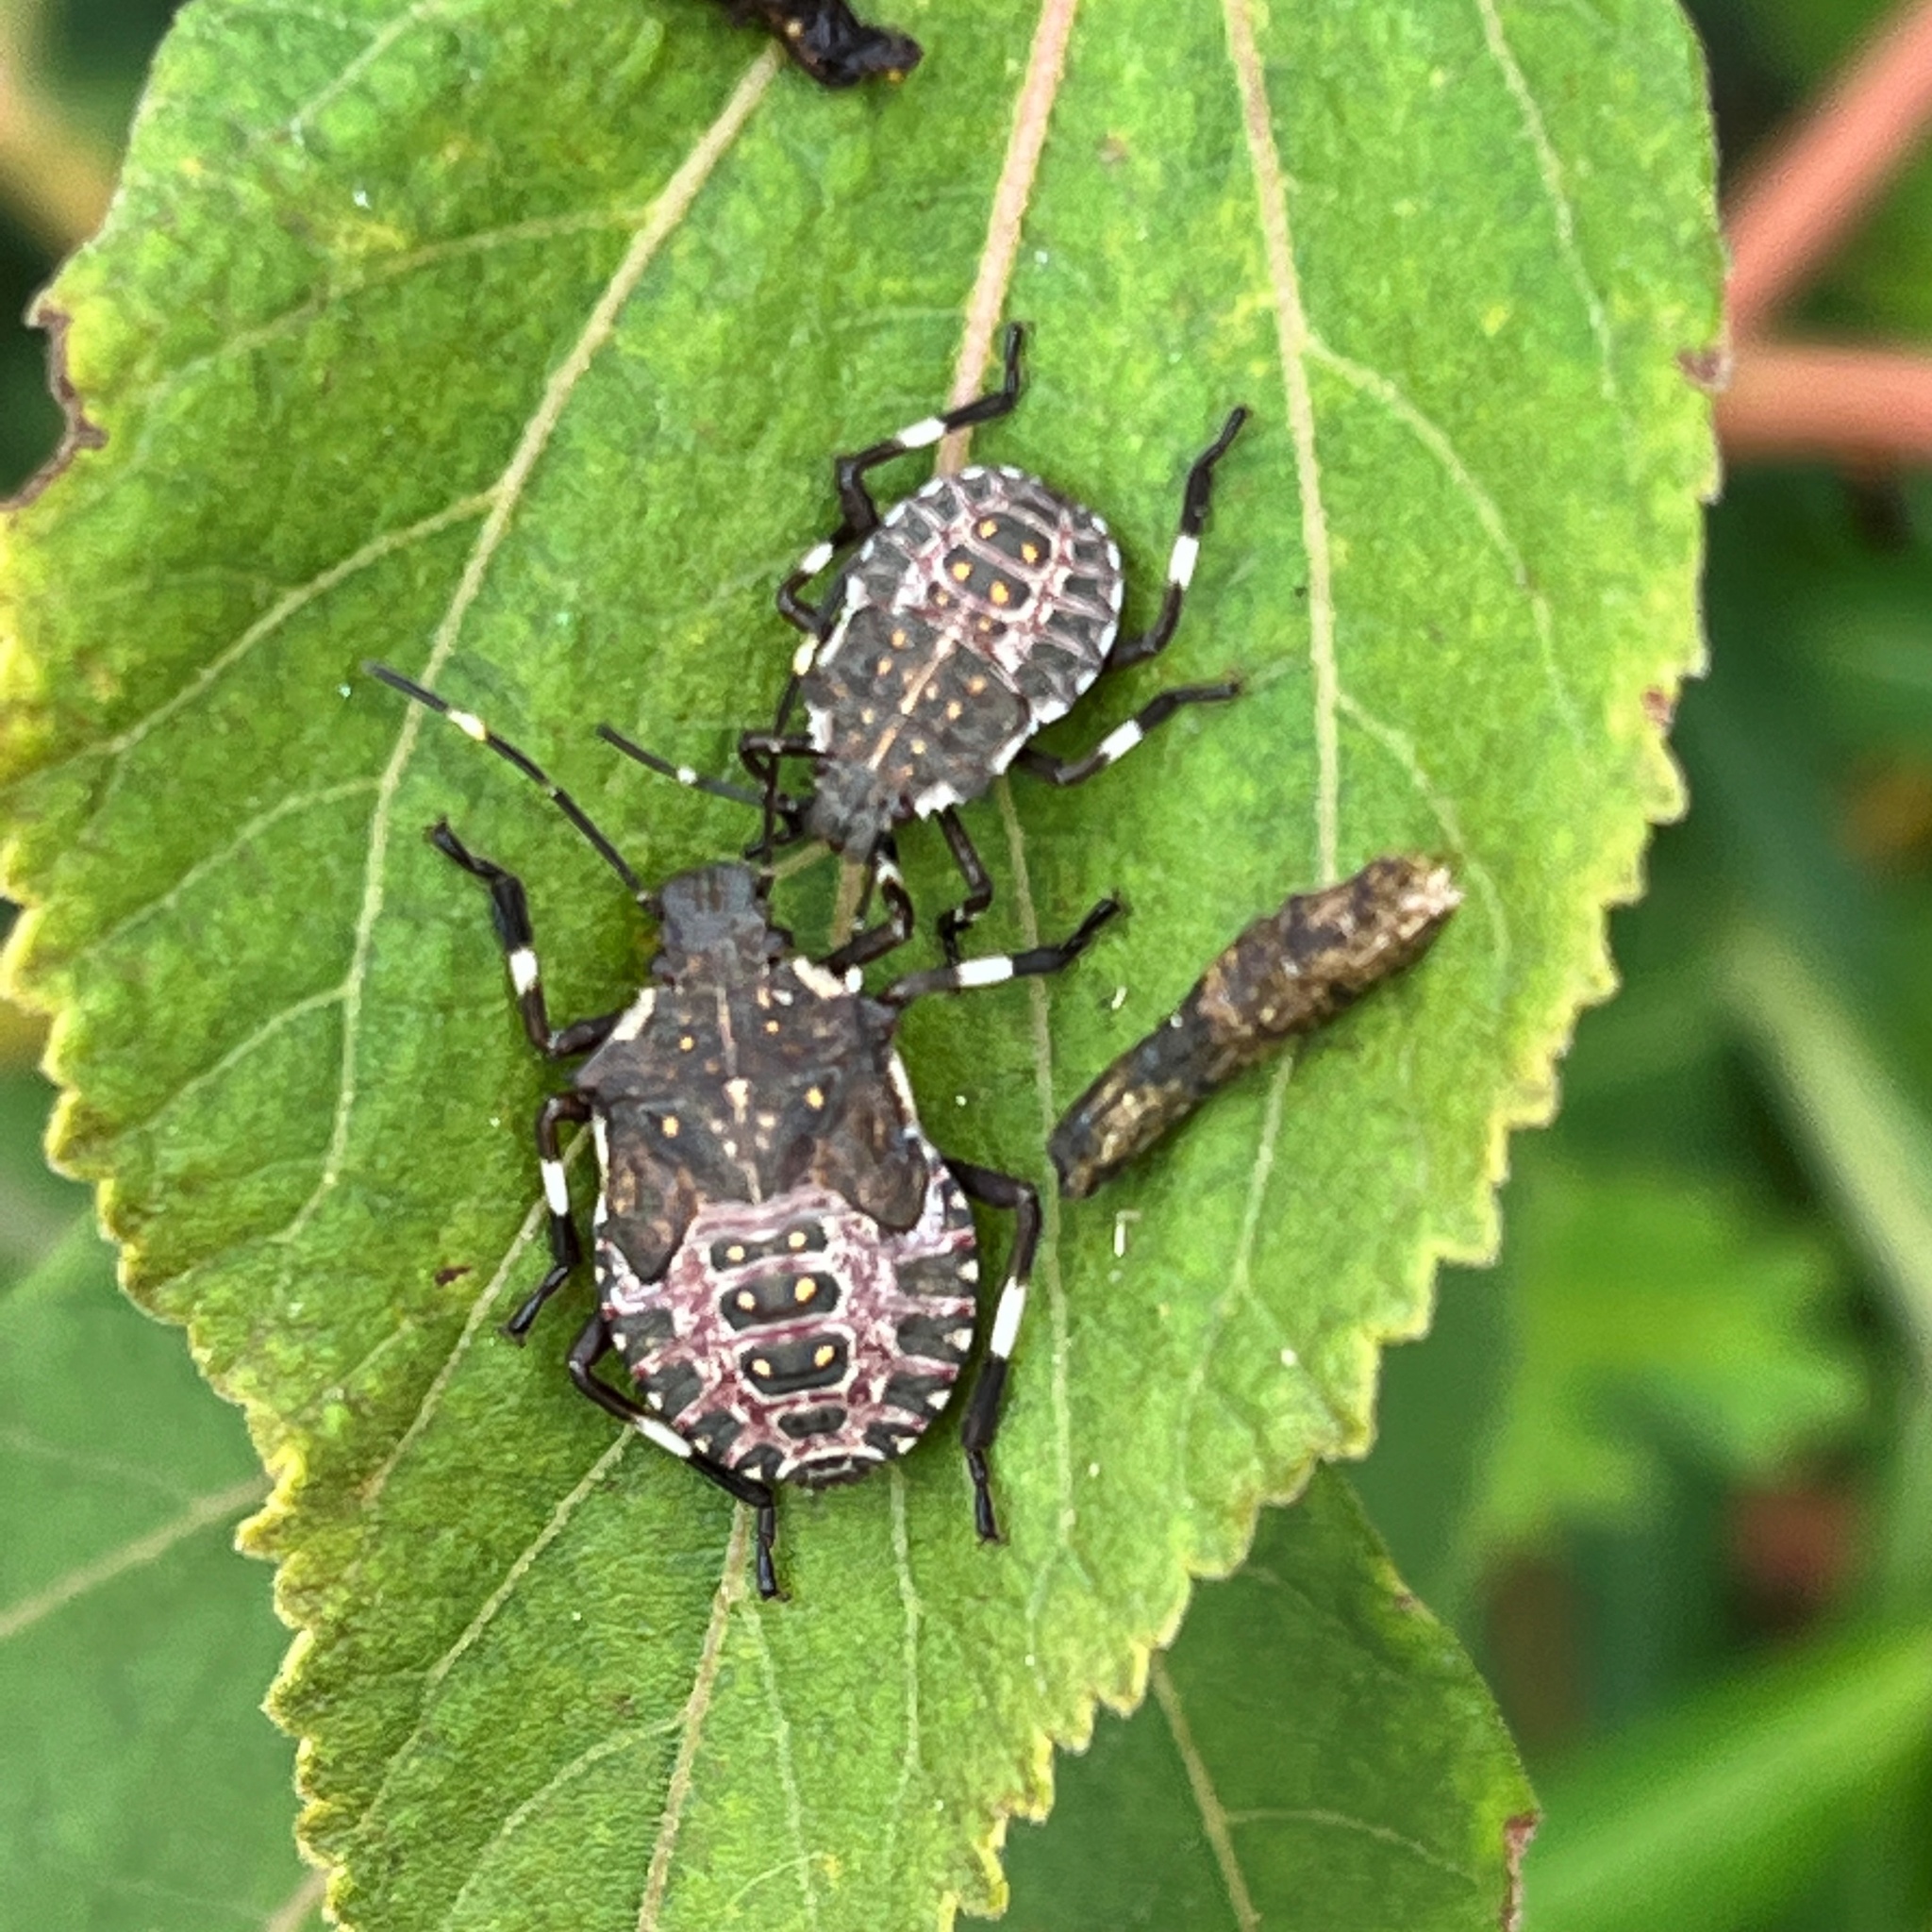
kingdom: Animalia
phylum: Arthropoda
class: Insecta
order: Hemiptera
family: Pentatomidae
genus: Halyomorpha
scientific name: Halyomorpha halys
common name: Brown marmorated stink bug
